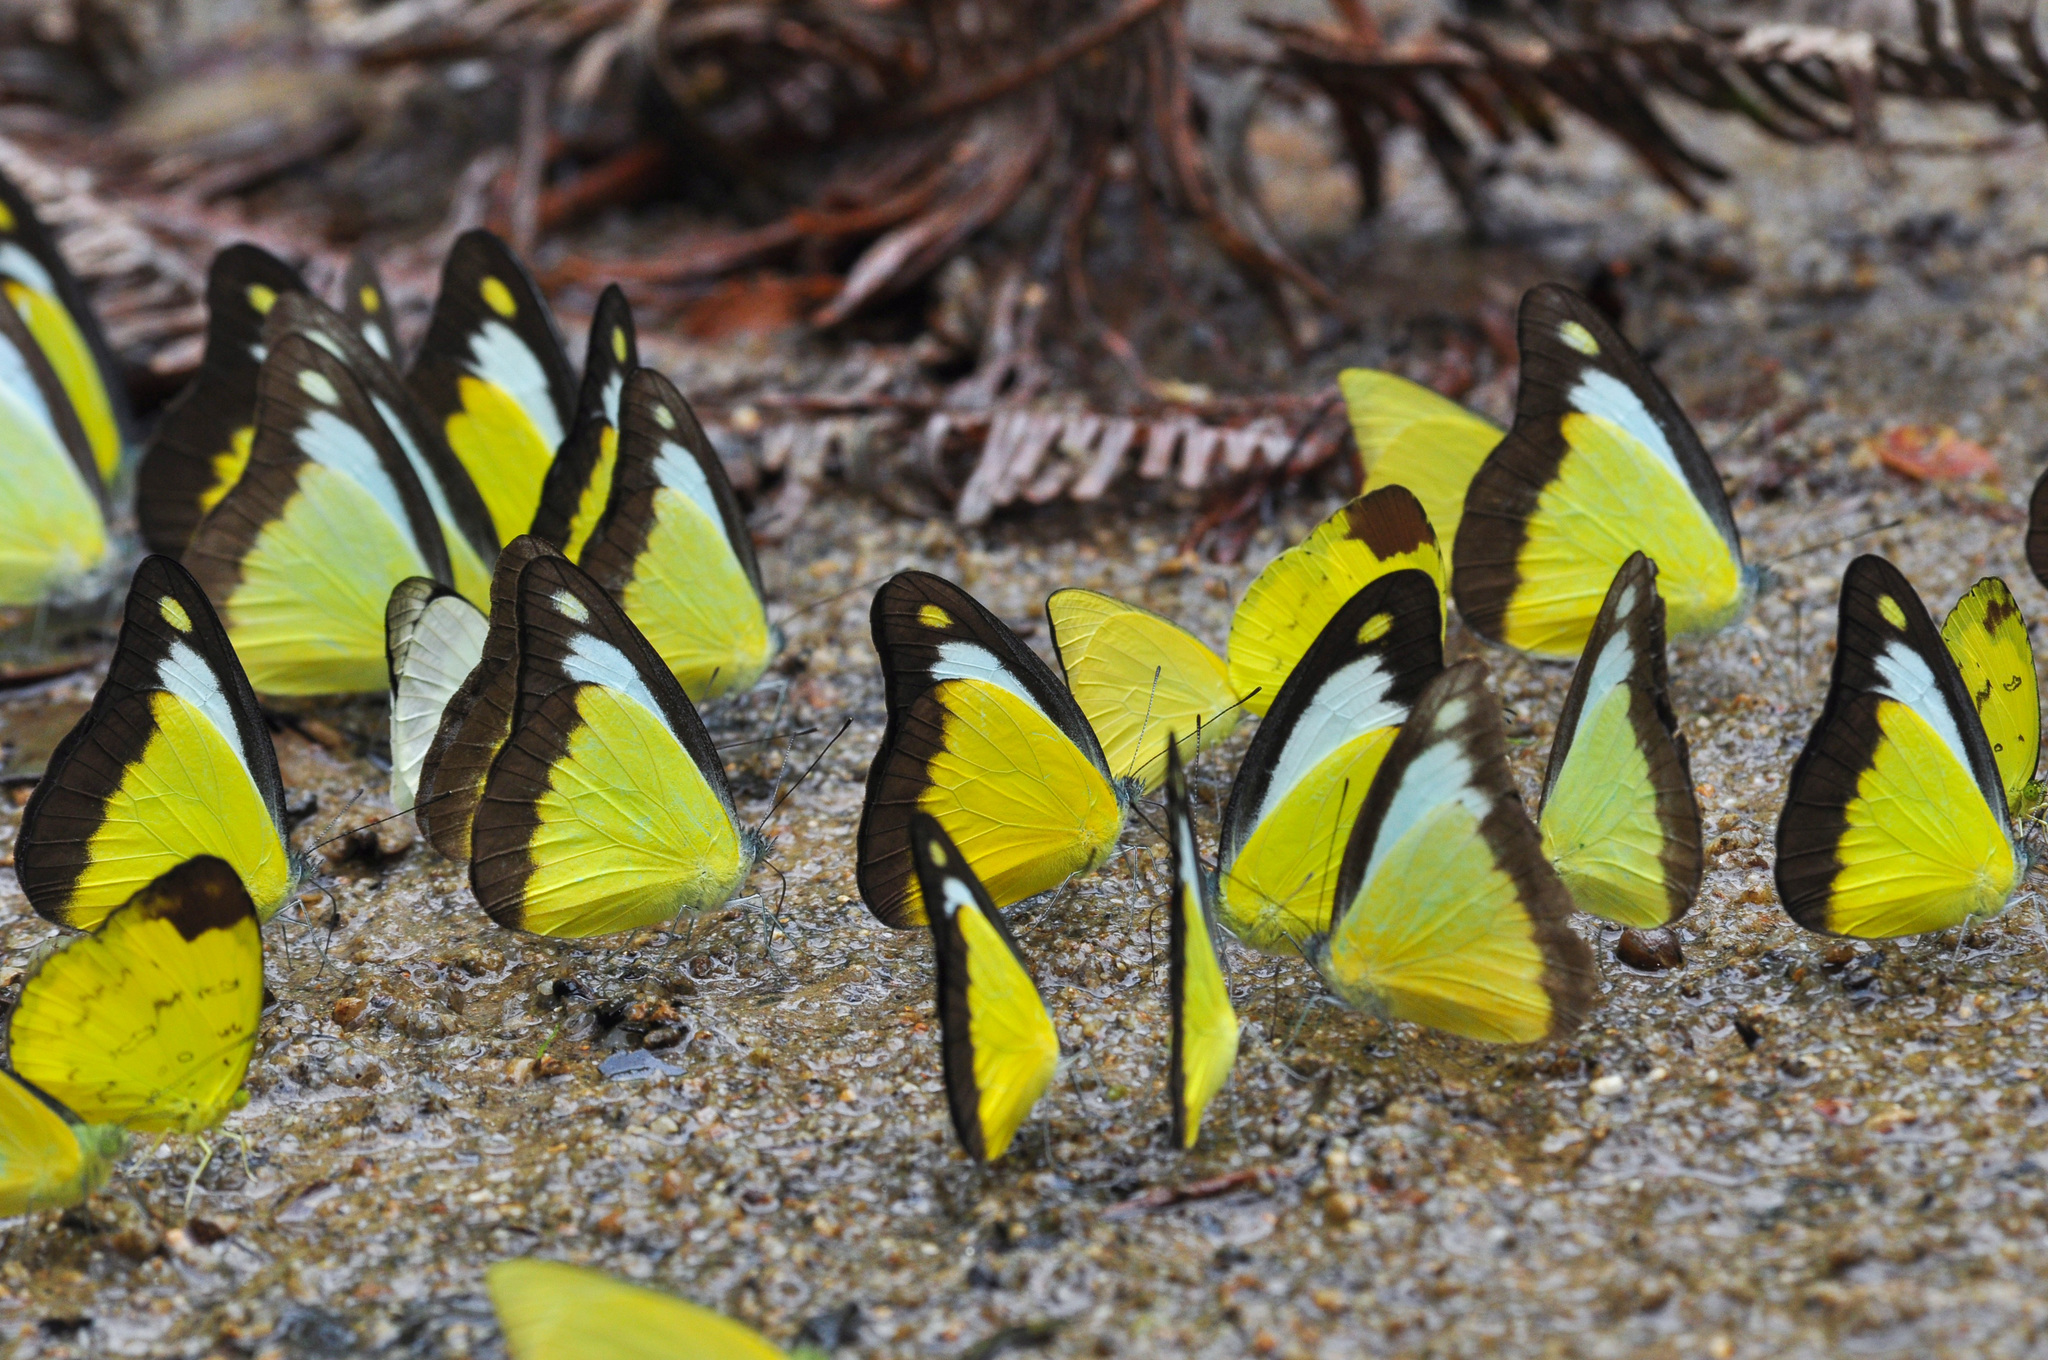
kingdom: Animalia
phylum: Arthropoda
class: Insecta
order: Lepidoptera
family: Pieridae
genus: Appias
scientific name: Appias lyncida
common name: Chocolate albatross
